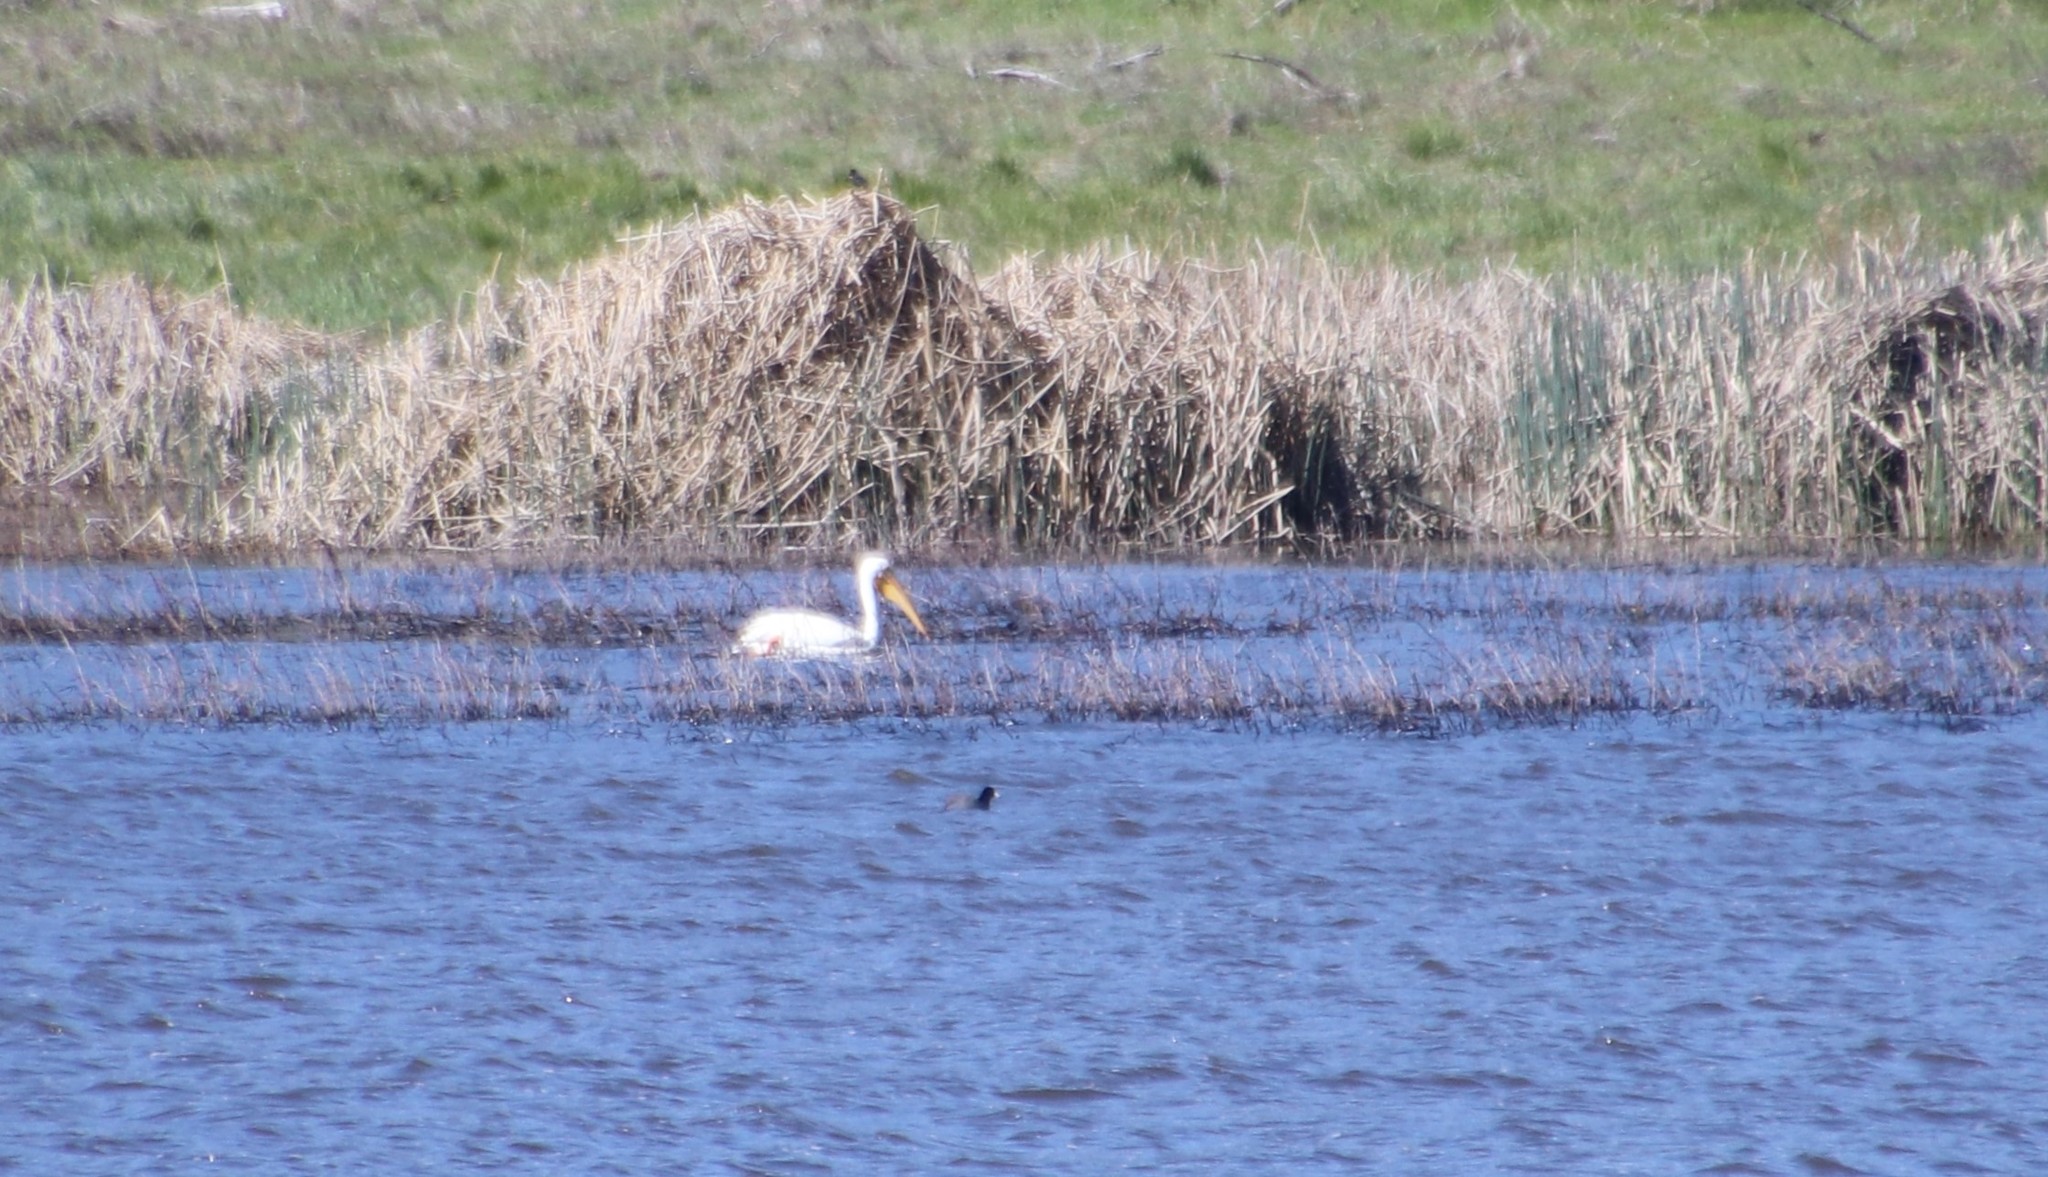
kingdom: Animalia
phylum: Chordata
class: Aves
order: Pelecaniformes
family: Pelecanidae
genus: Pelecanus
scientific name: Pelecanus erythrorhynchos
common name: American white pelican
